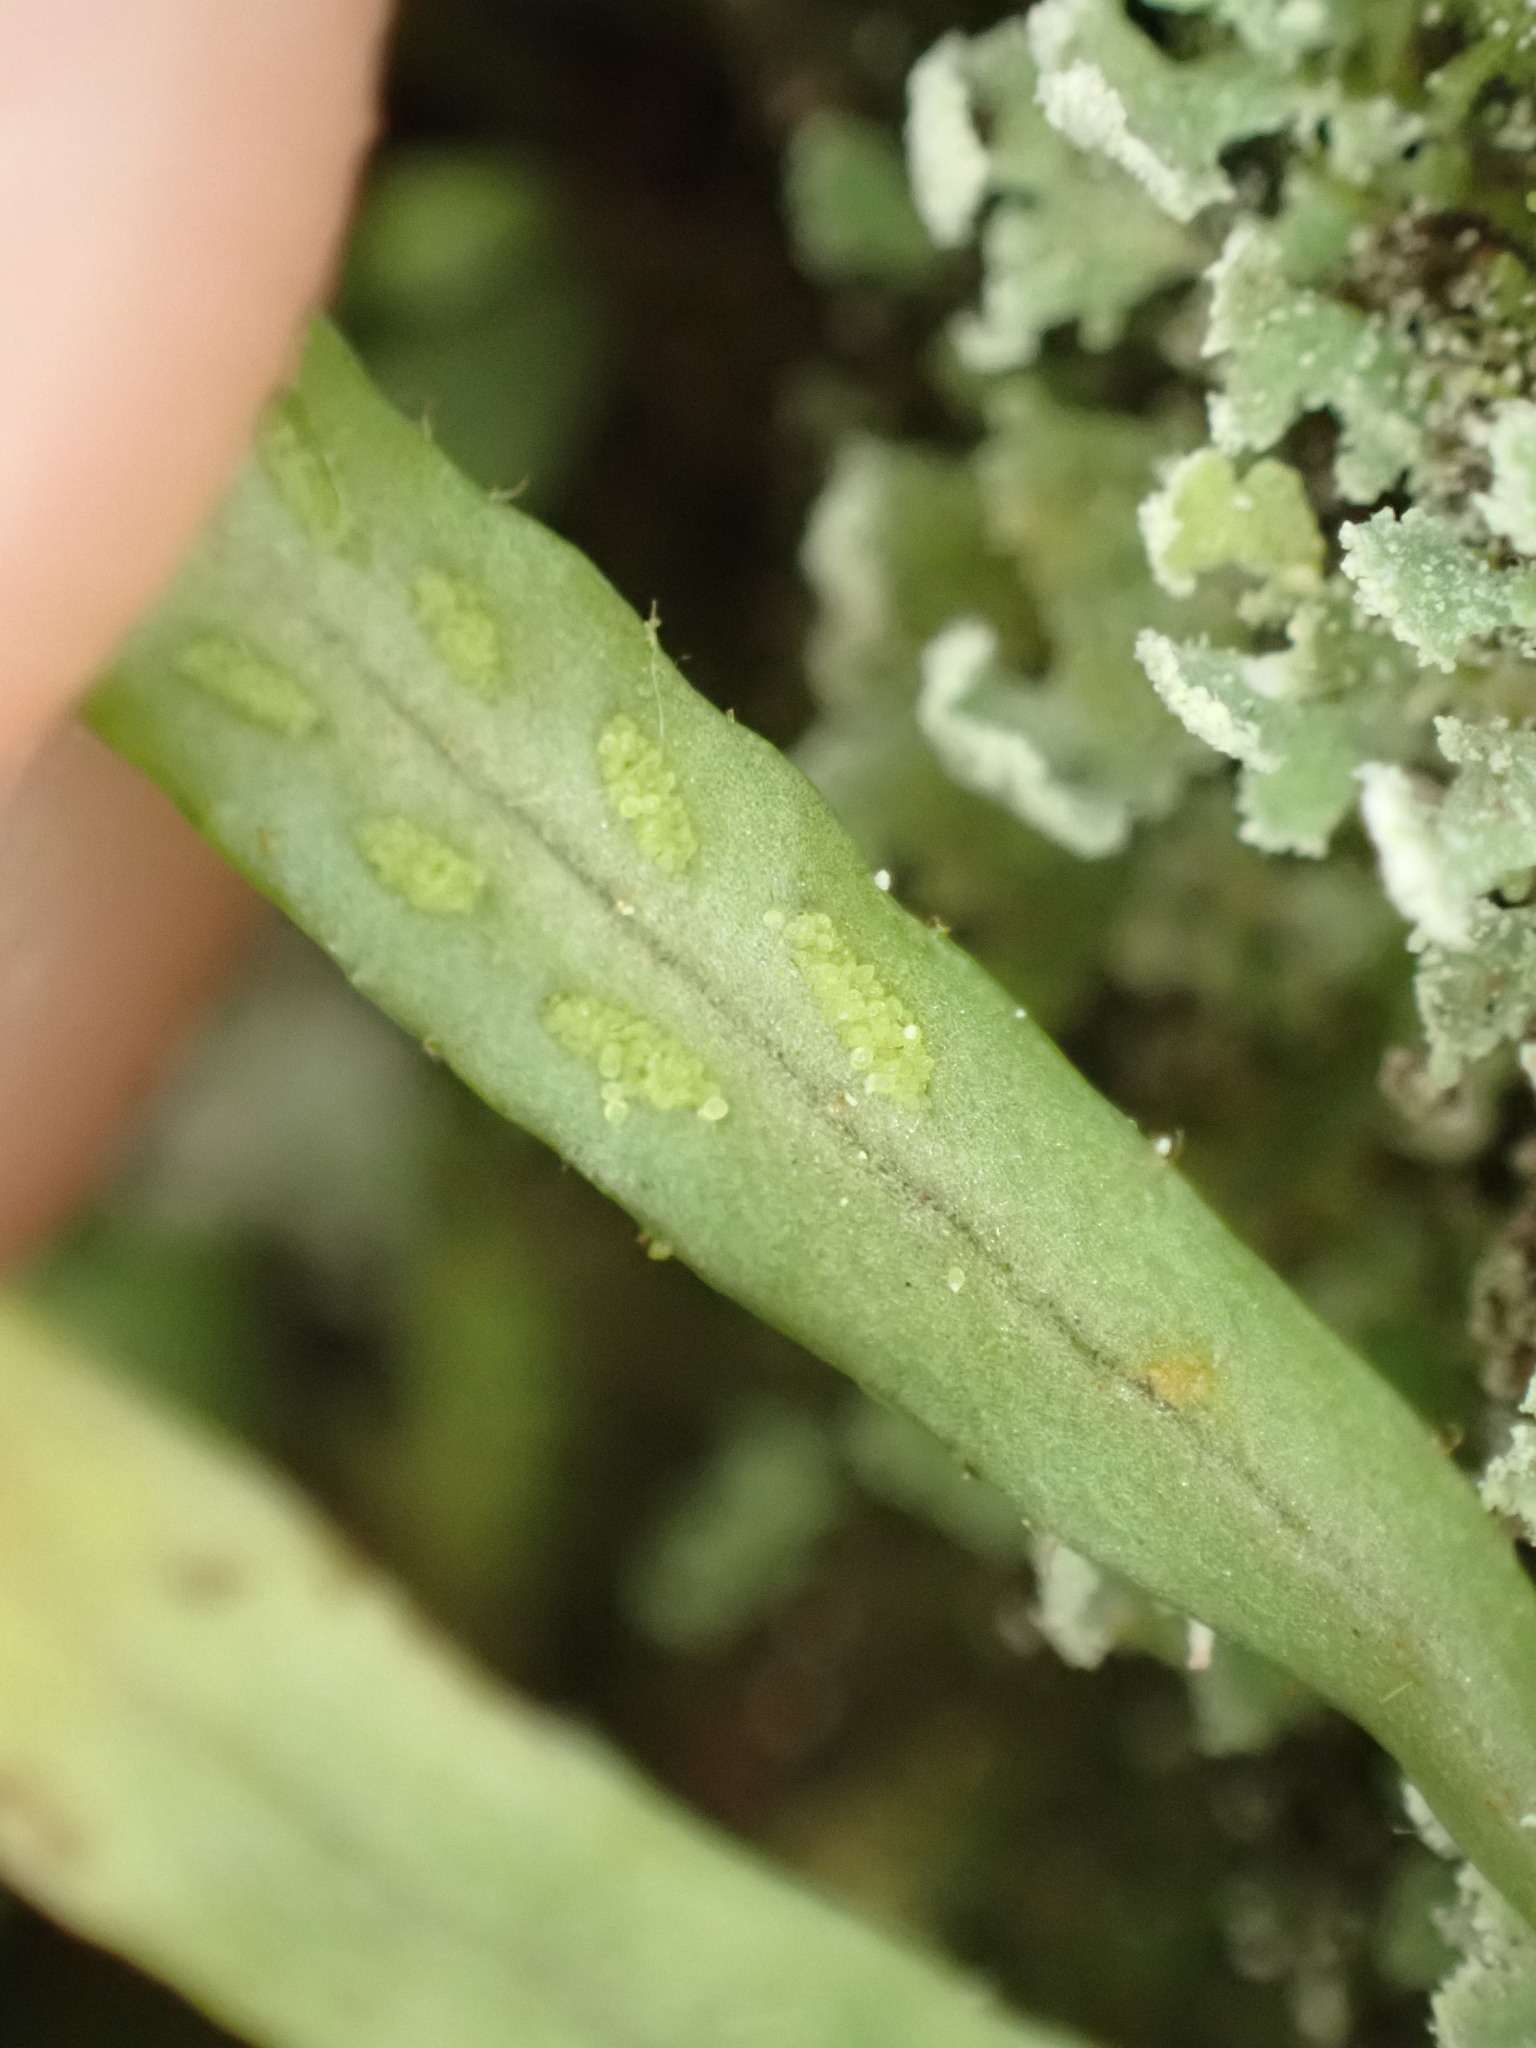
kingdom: Plantae
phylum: Tracheophyta
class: Polypodiopsida
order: Polypodiales
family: Polypodiaceae
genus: Notogrammitis
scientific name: Notogrammitis ciliata
